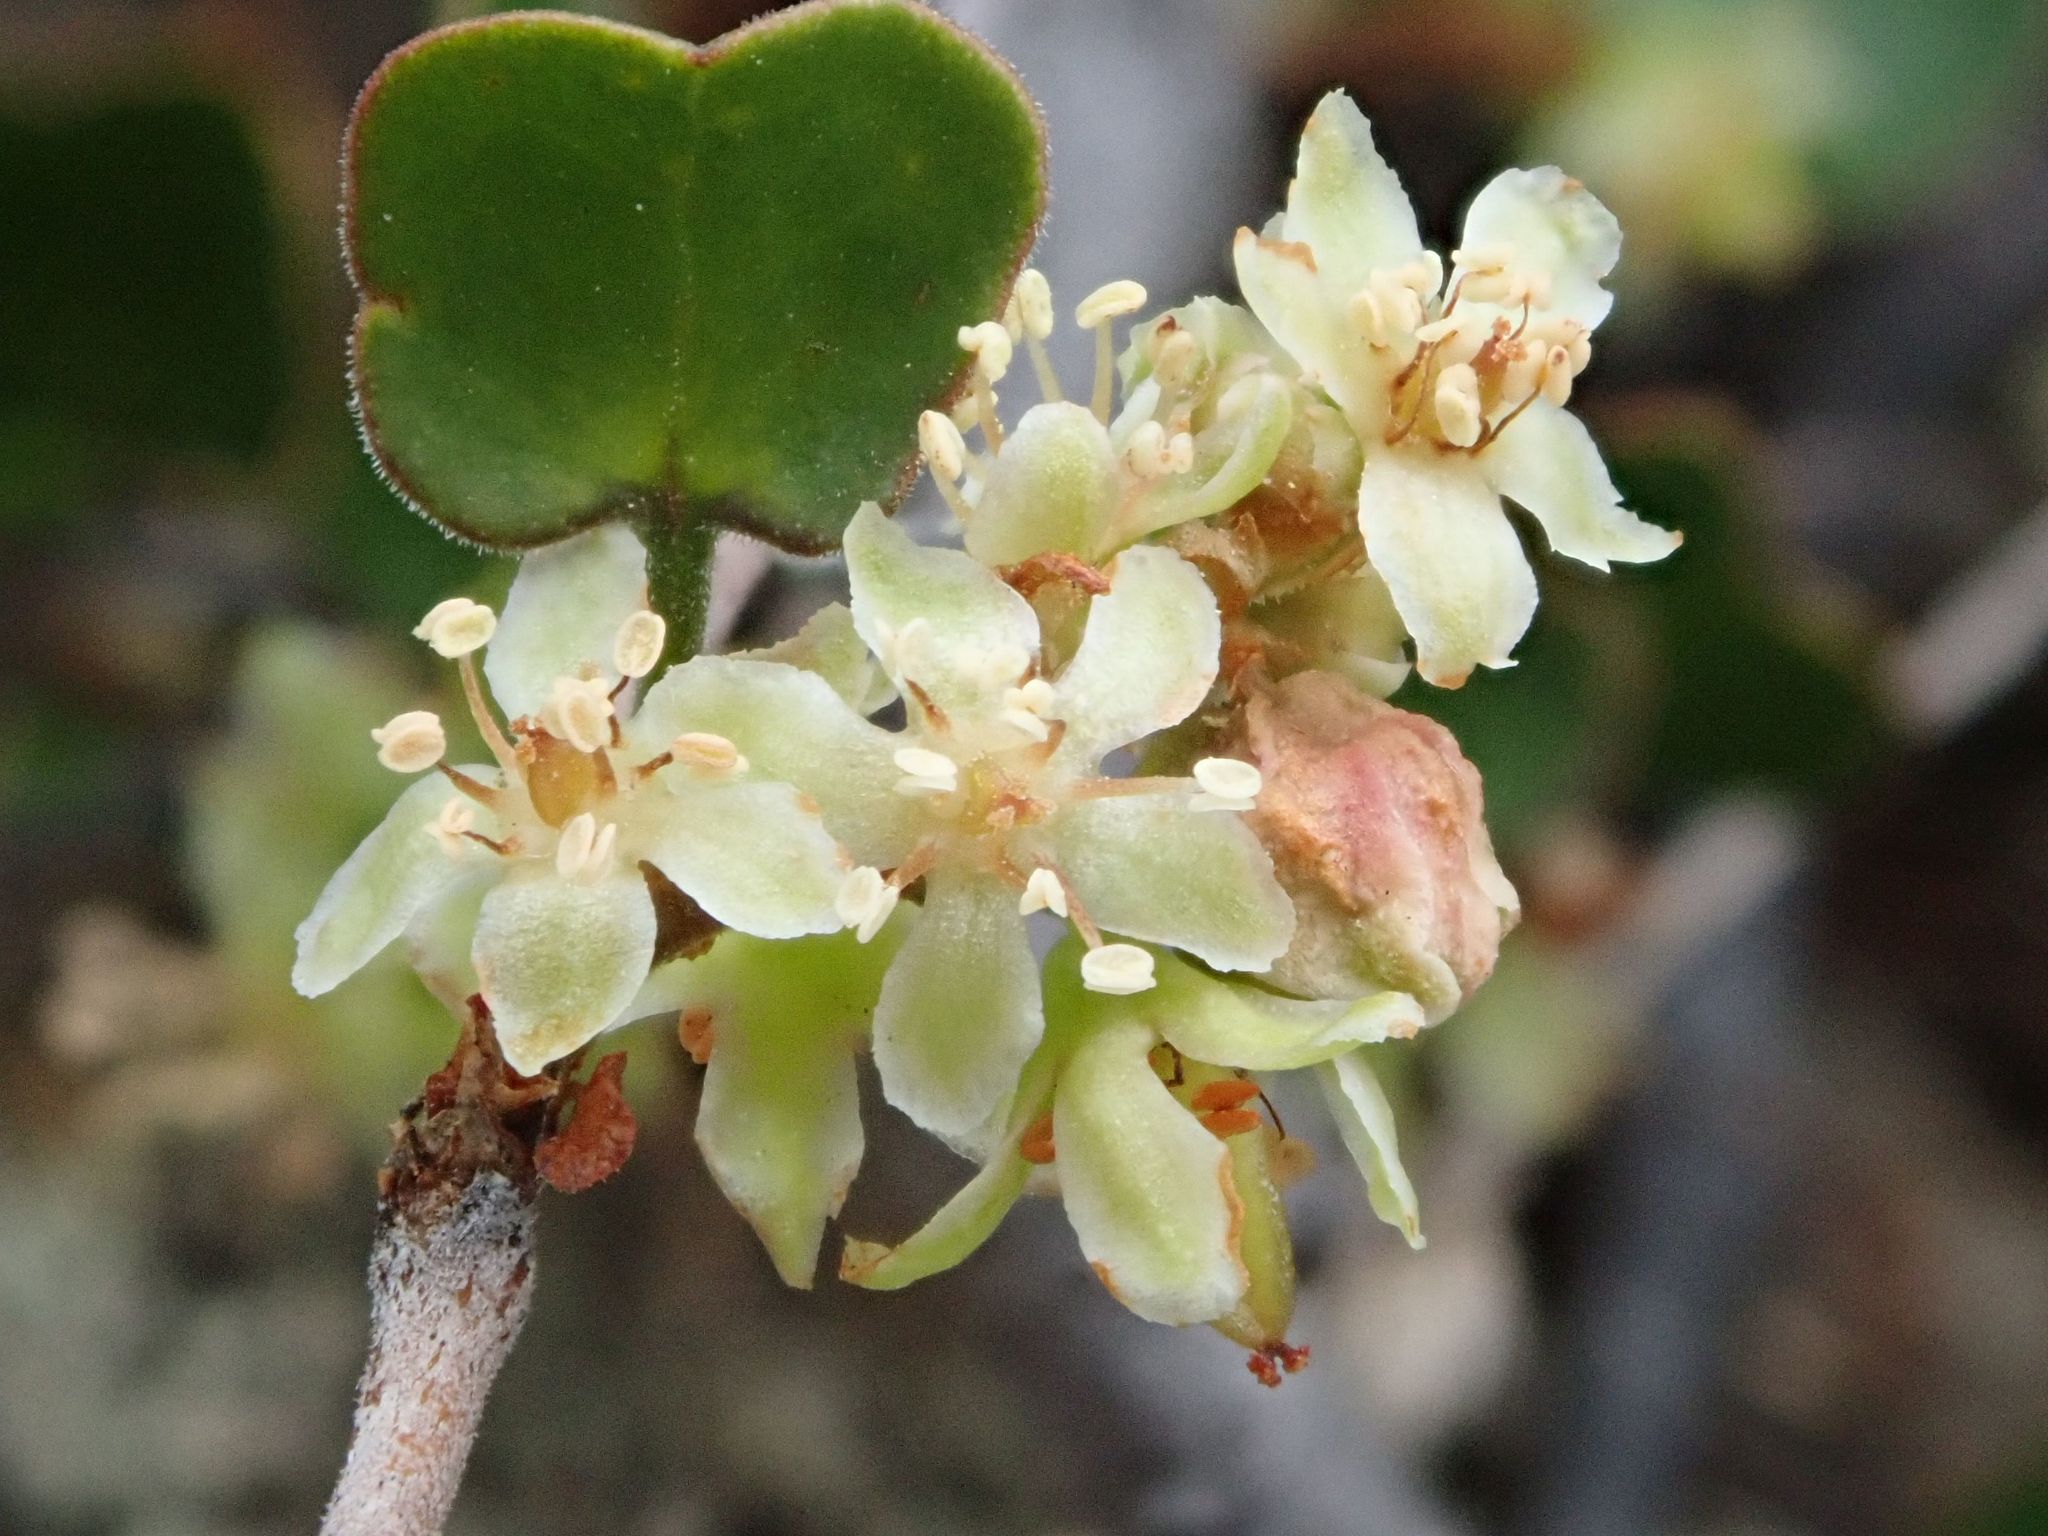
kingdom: Plantae
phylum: Tracheophyta
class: Magnoliopsida
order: Caryophyllales
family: Polygonaceae
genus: Muehlenbeckia
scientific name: Muehlenbeckia complexa
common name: Wireplant
